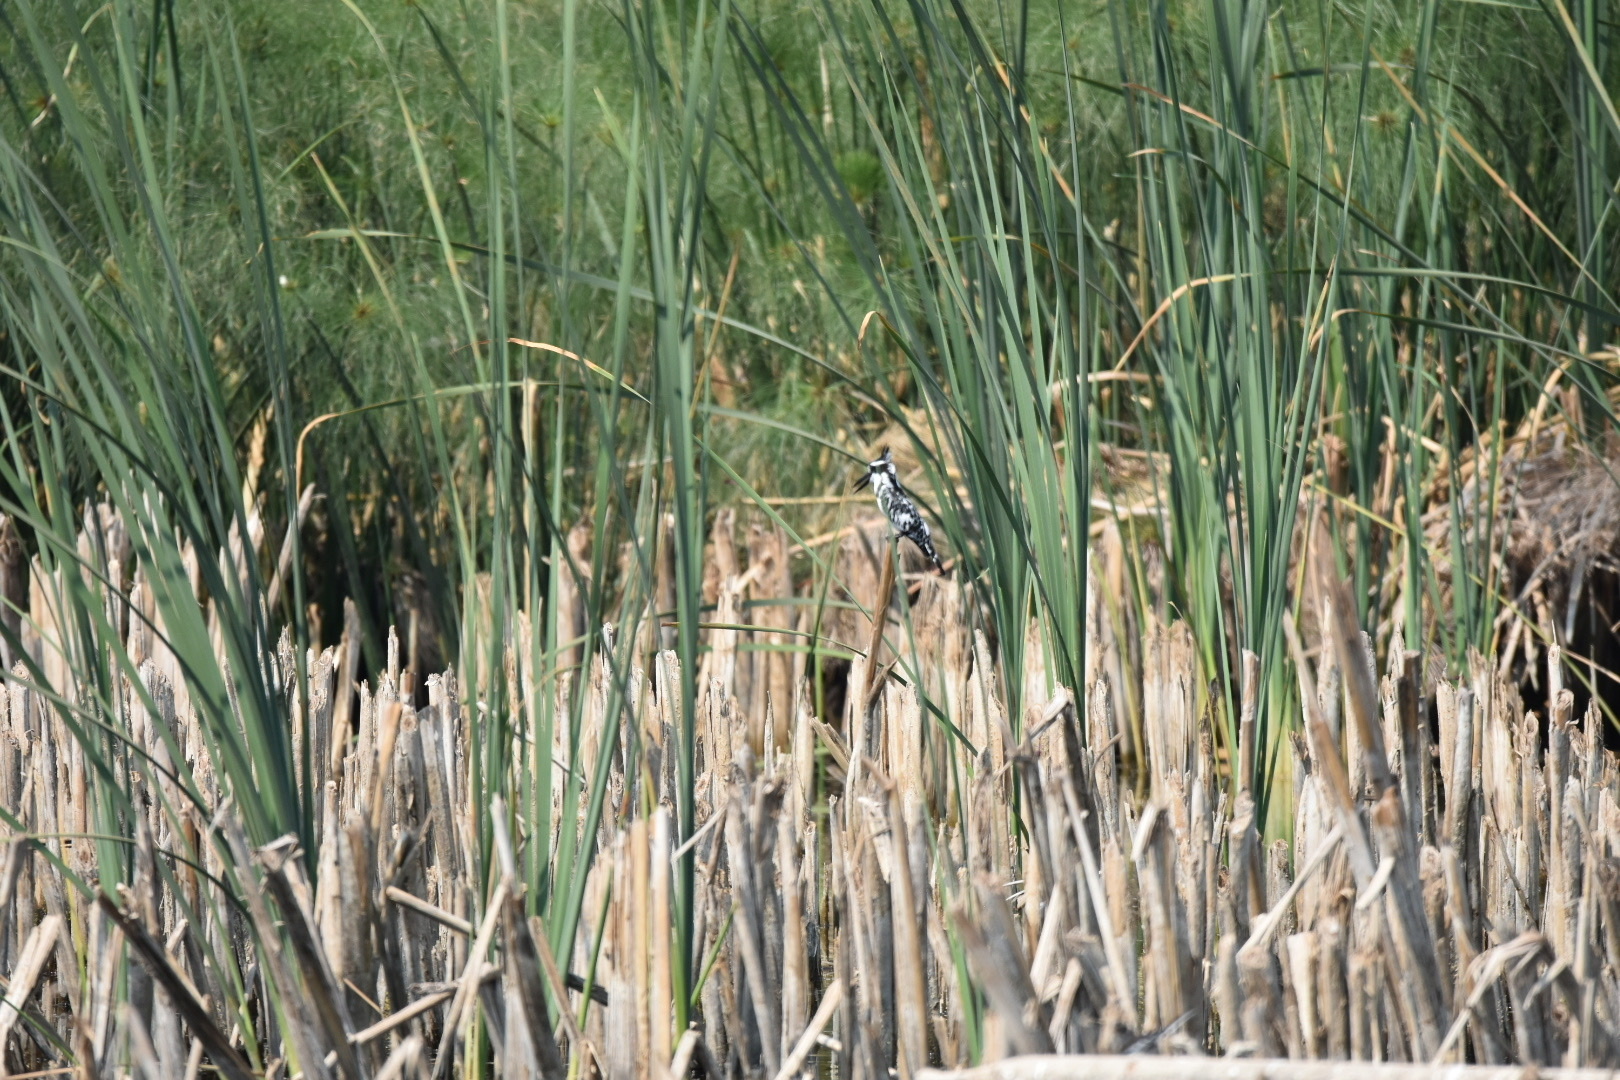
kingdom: Animalia
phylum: Chordata
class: Aves
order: Coraciiformes
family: Alcedinidae
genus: Ceryle
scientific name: Ceryle rudis
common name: Pied kingfisher
